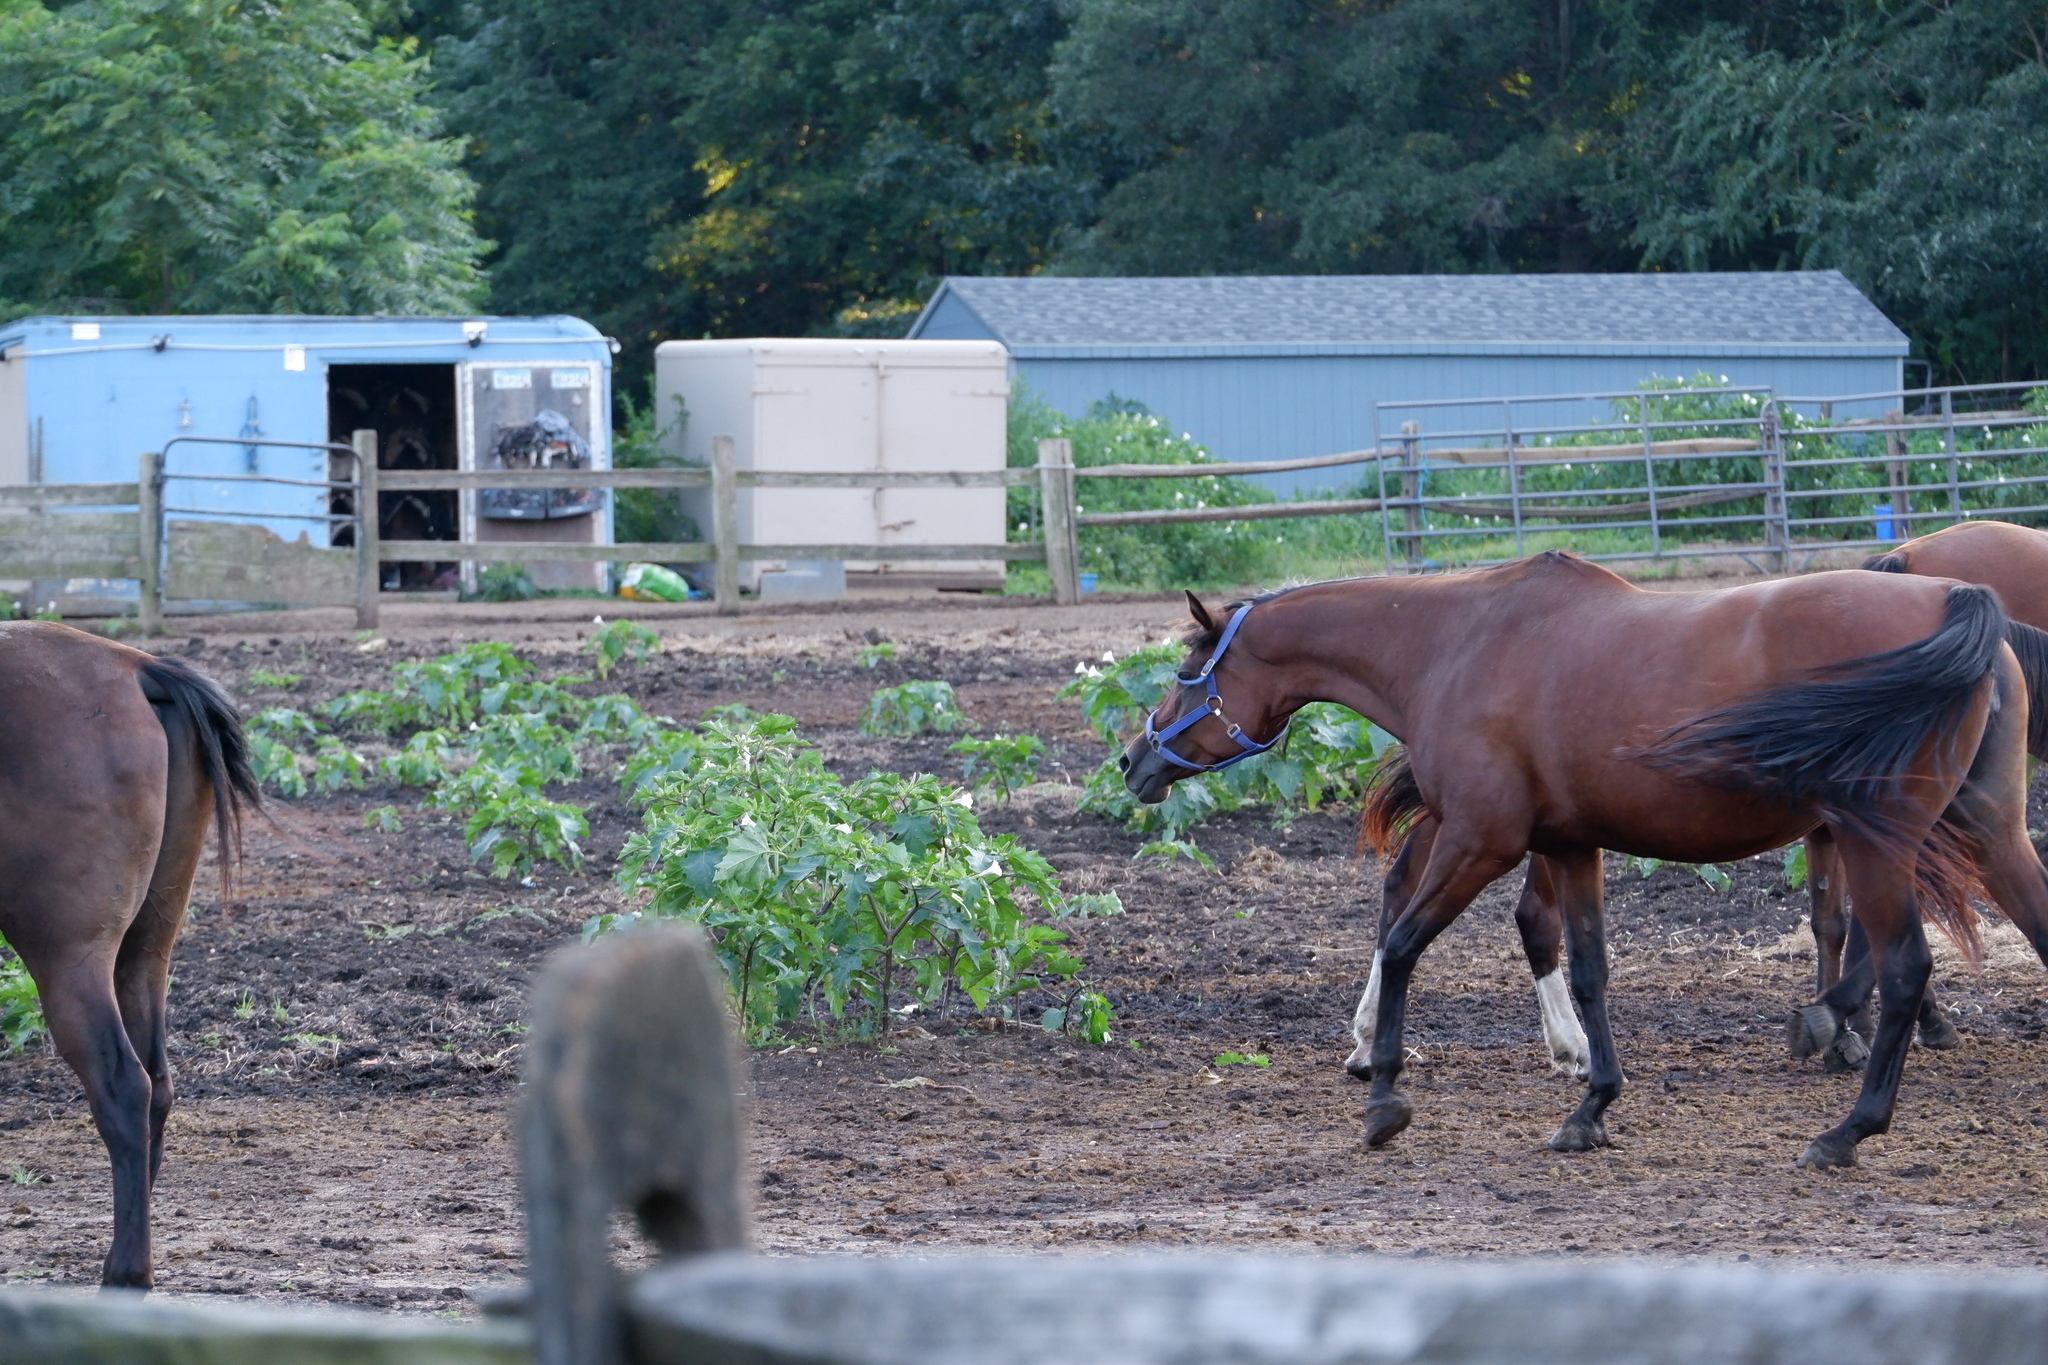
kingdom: Plantae
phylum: Tracheophyta
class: Magnoliopsida
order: Solanales
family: Solanaceae
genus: Datura
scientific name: Datura stramonium
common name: Thorn-apple
